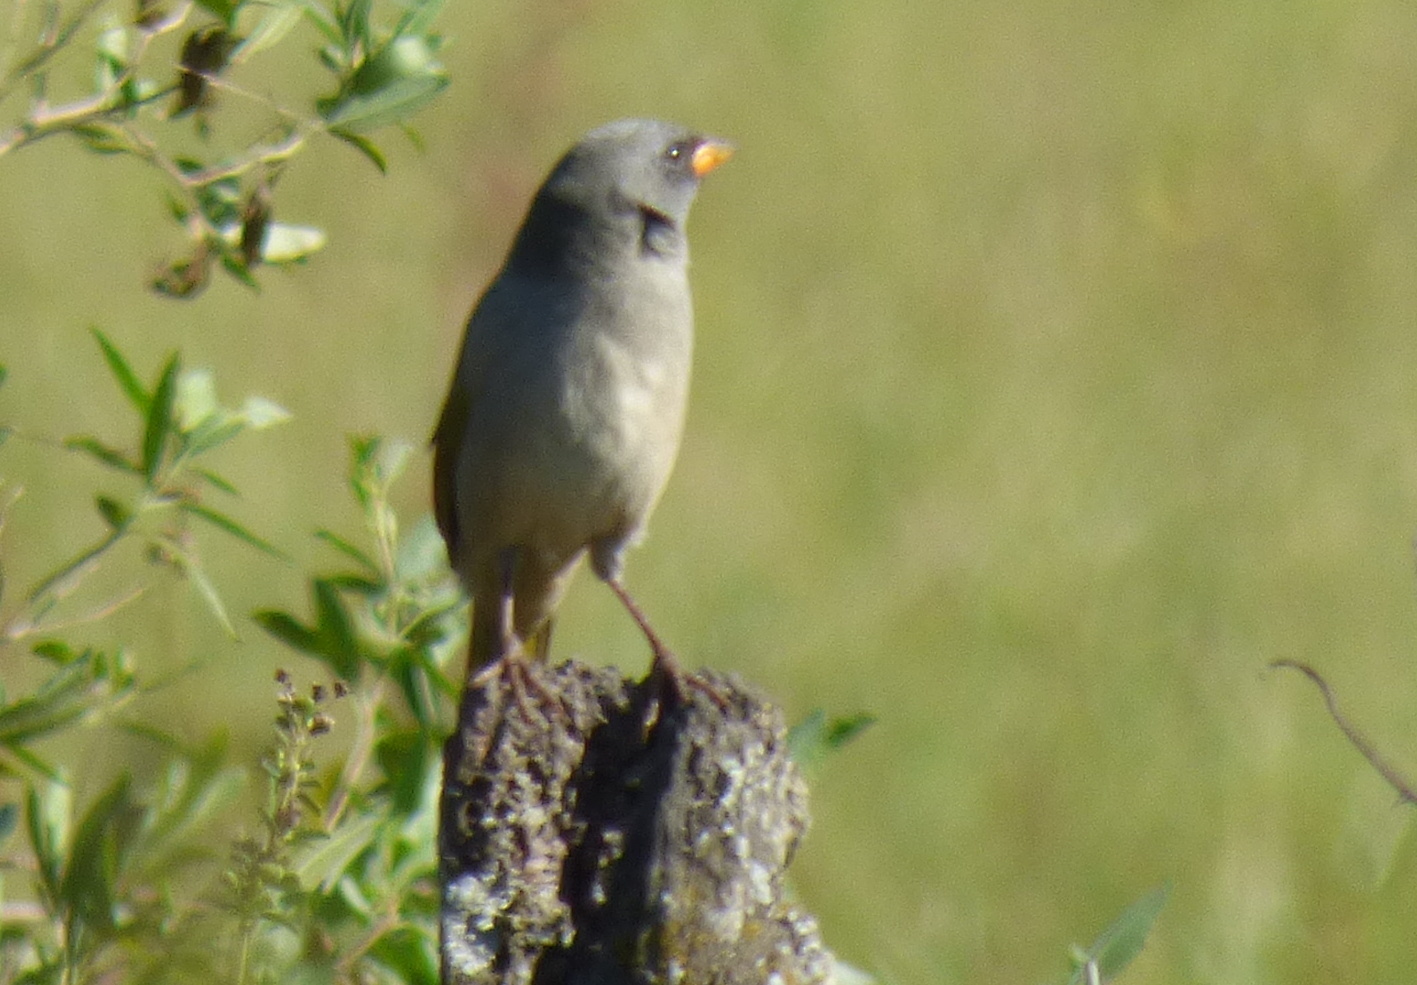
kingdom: Animalia
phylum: Chordata
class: Aves
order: Passeriformes
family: Thraupidae
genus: Embernagra
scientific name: Embernagra platensis
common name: Pampa finch
